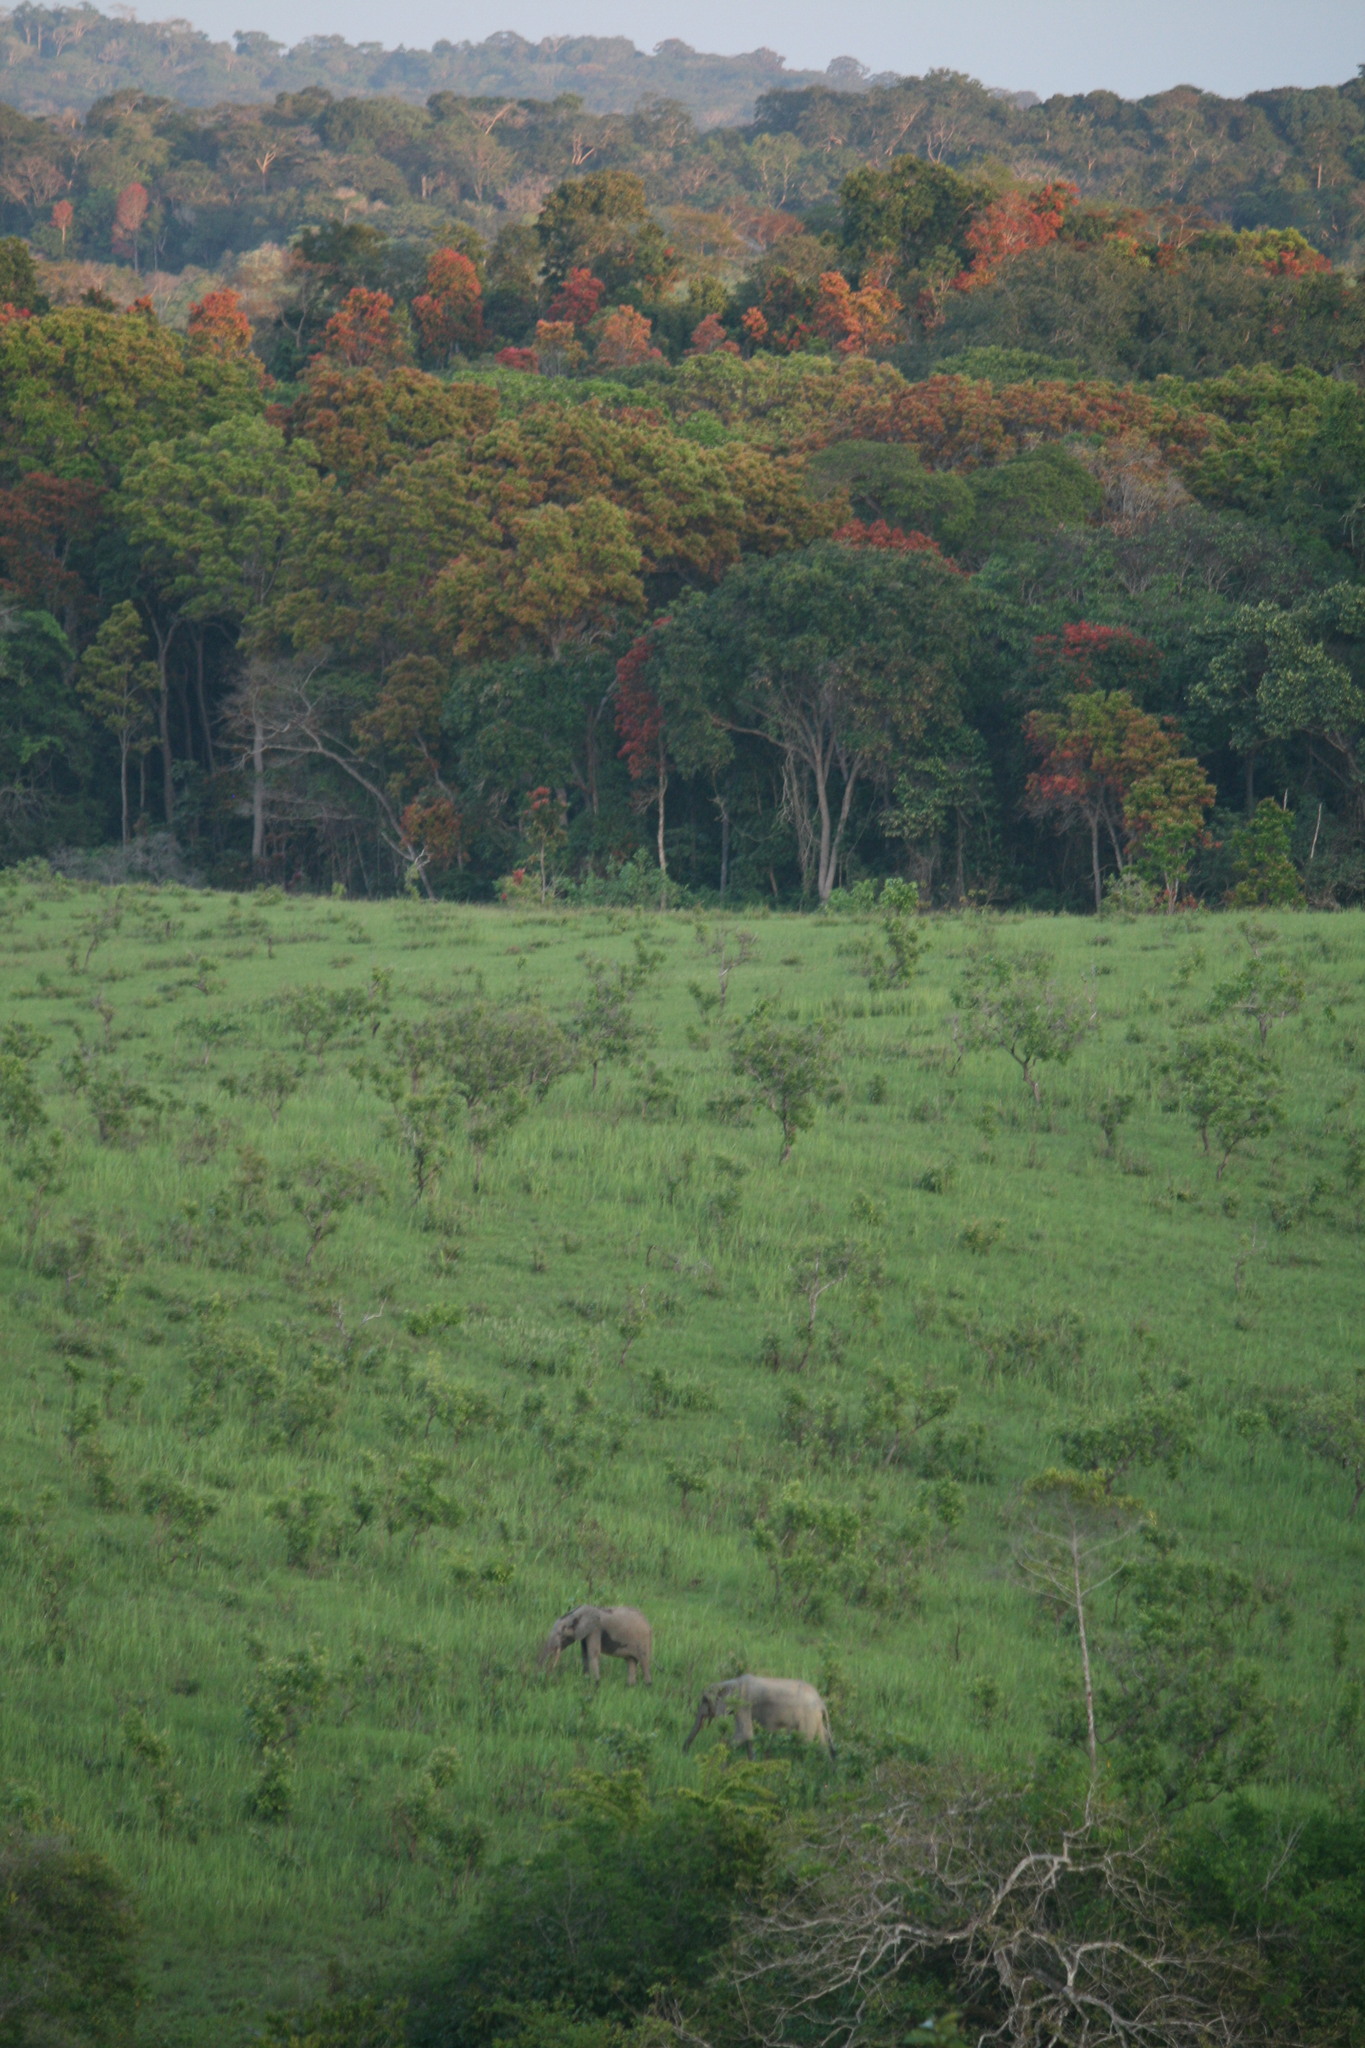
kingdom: Animalia
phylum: Chordata
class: Mammalia
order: Proboscidea
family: Elephantidae
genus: Loxodonta
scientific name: Loxodonta cyclotis
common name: African forest elephant
